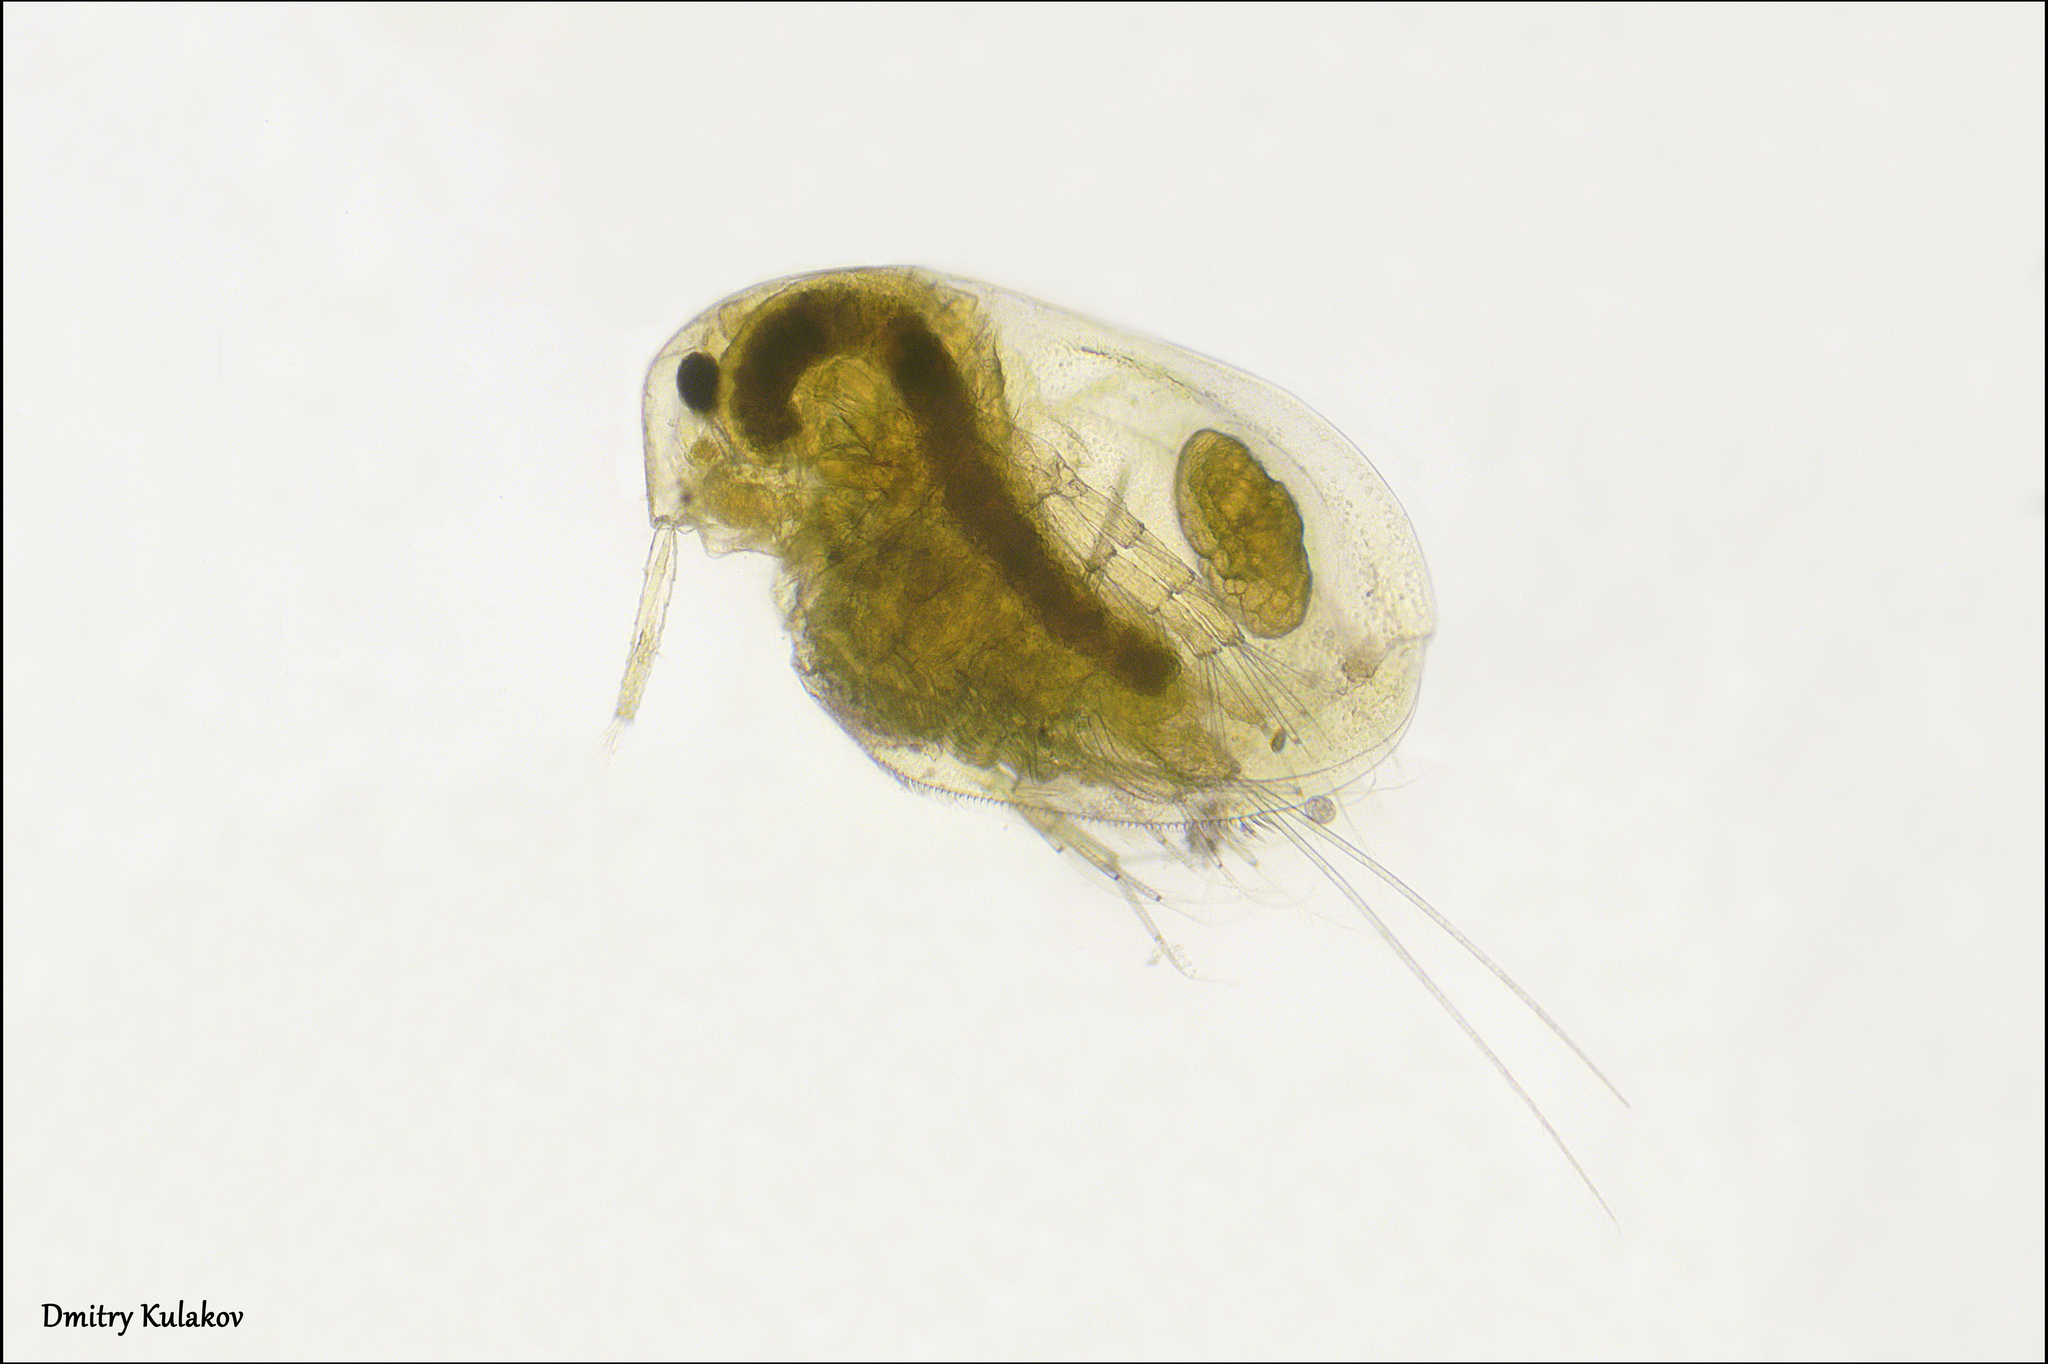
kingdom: Animalia
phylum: Arthropoda
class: Branchiopoda
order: Diplostraca
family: Macrothricidae
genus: Lathonura
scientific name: Lathonura rectirostris
